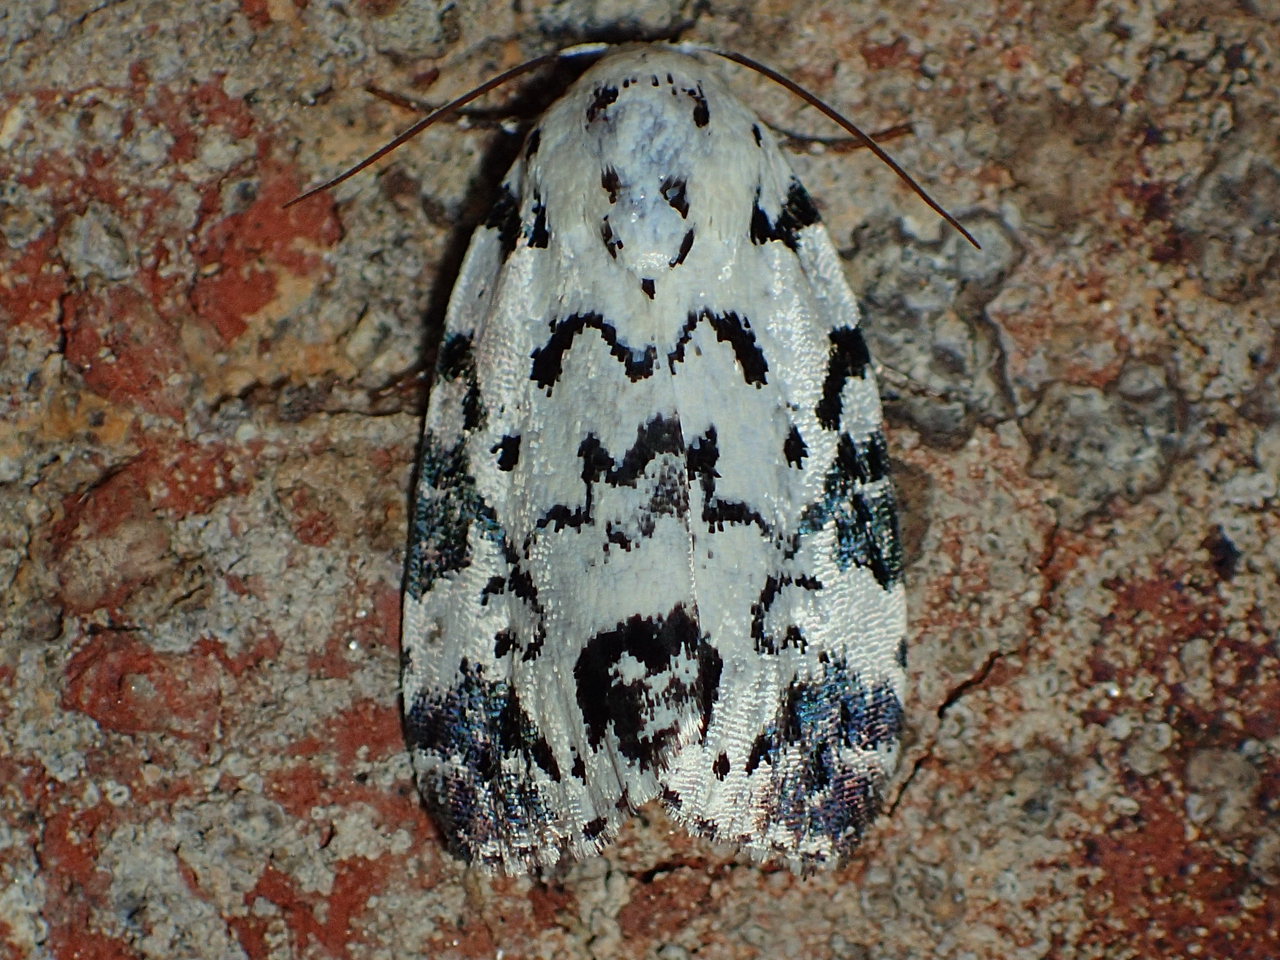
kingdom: Animalia
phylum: Arthropoda
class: Insecta
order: Lepidoptera
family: Noctuidae
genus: Polygrammate
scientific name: Polygrammate hebraeicum
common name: Hebrew moth
